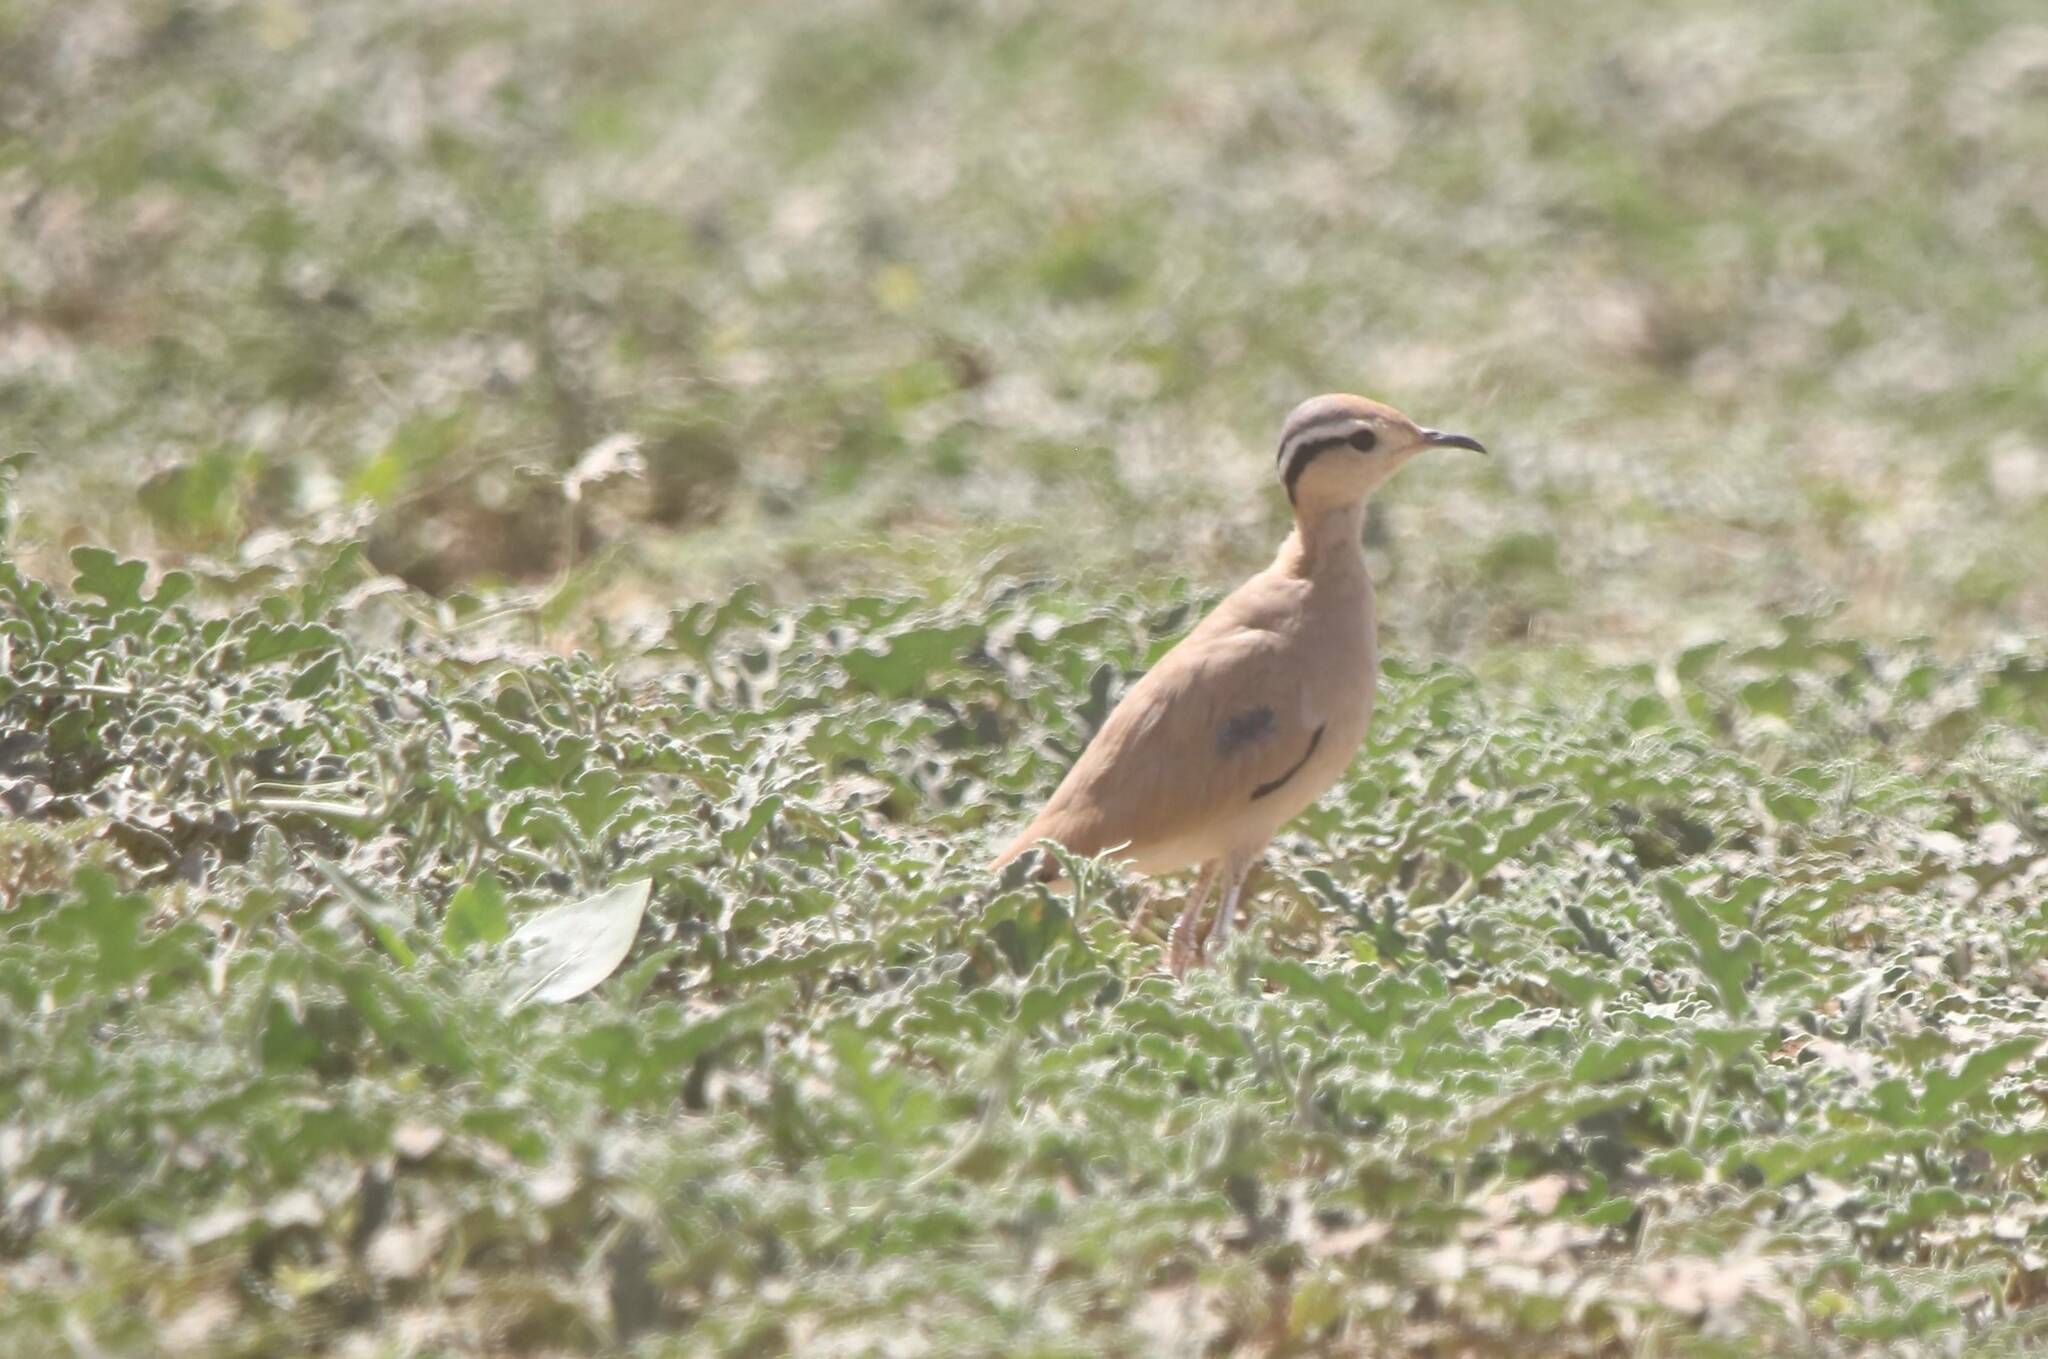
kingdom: Animalia
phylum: Chordata
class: Aves
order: Charadriiformes
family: Glareolidae
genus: Cursorius
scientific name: Cursorius cursor
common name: Cream-colored courser
